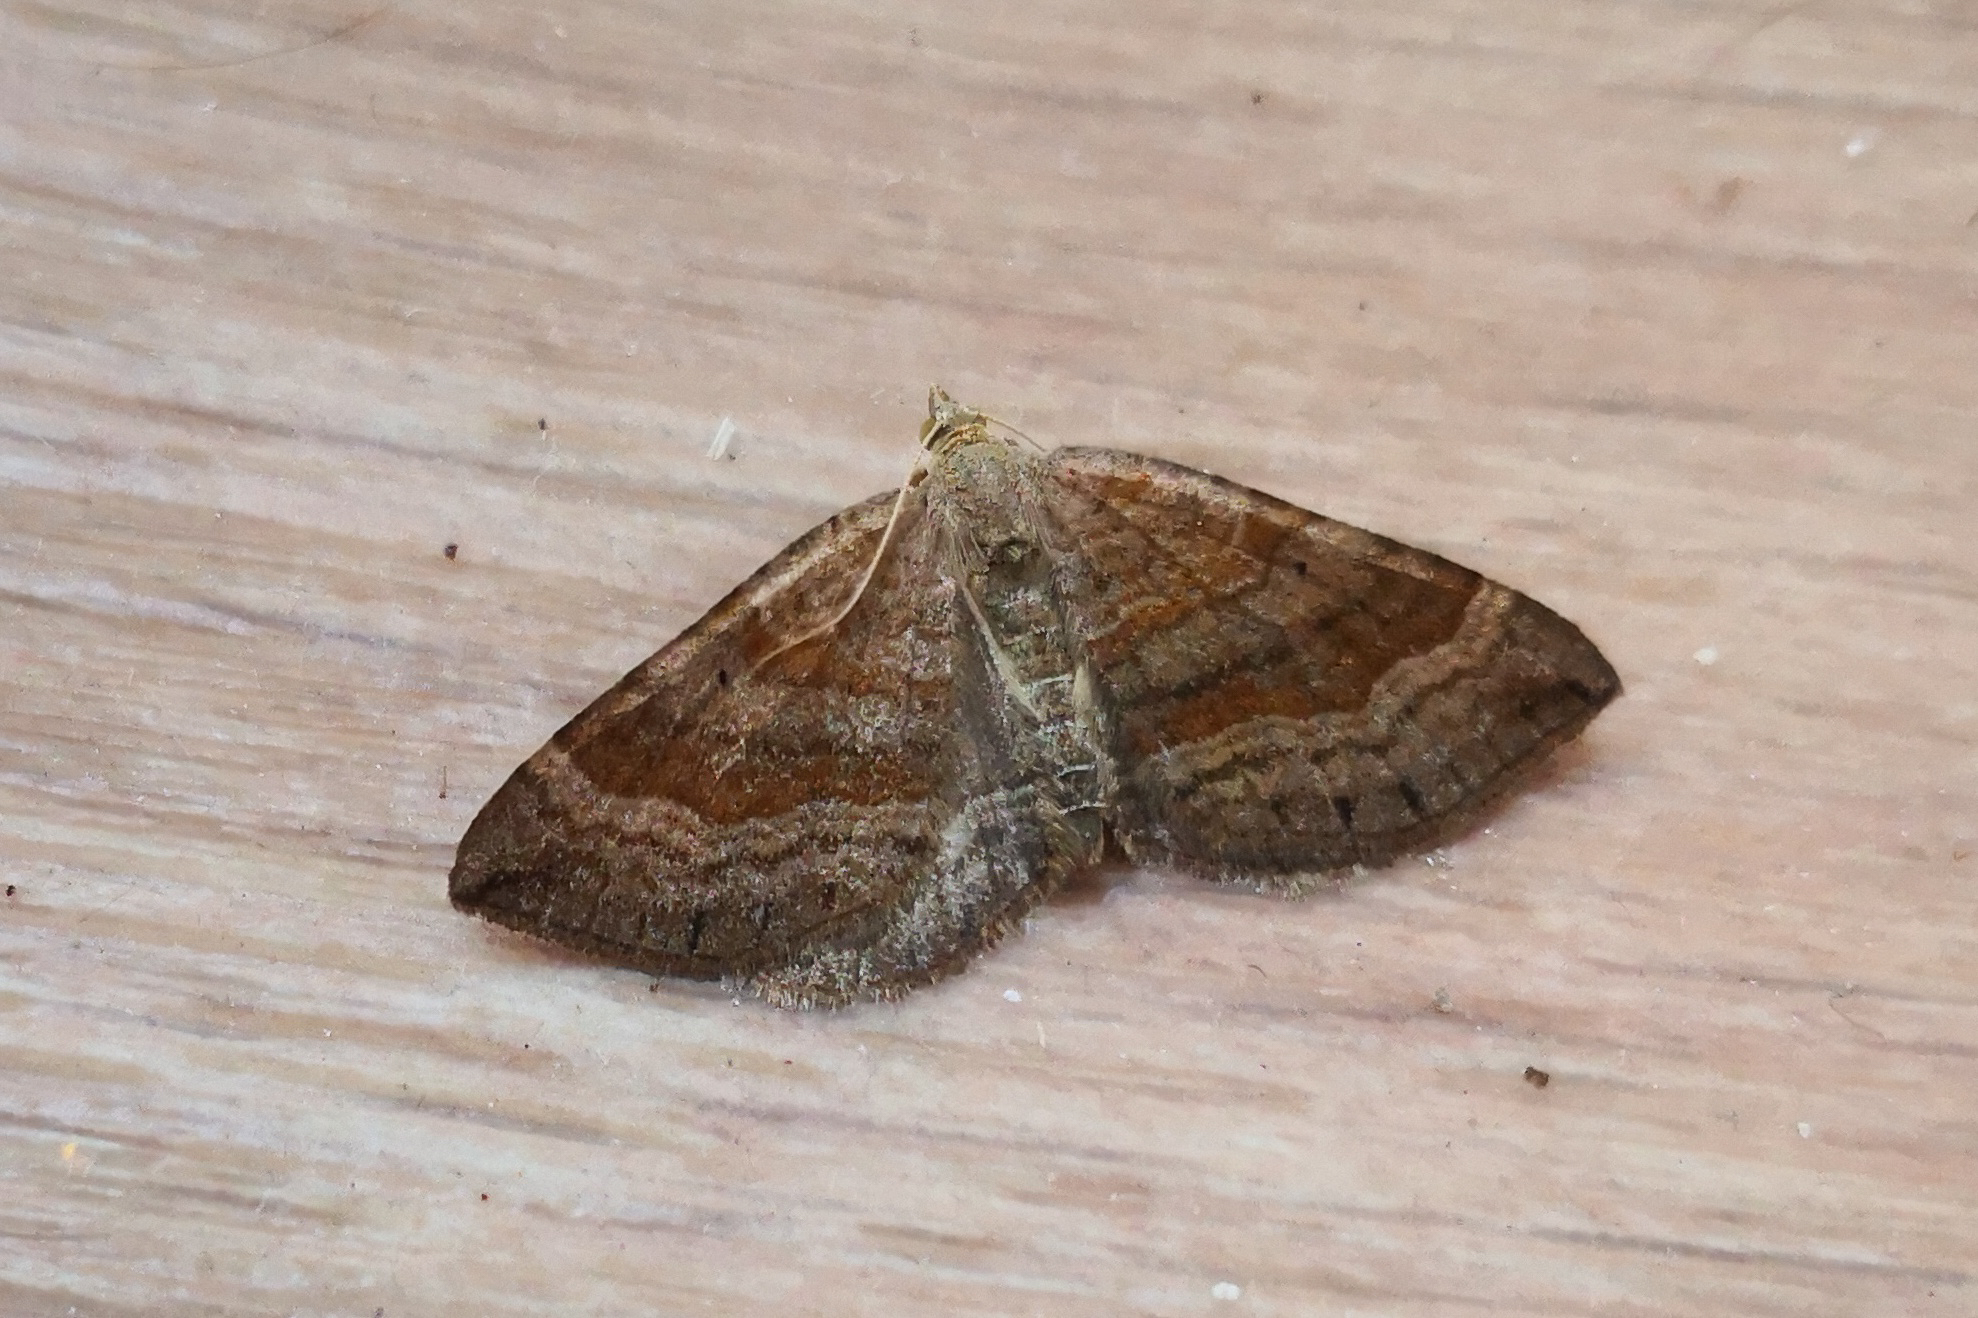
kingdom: Animalia
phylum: Arthropoda
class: Insecta
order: Lepidoptera
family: Geometridae
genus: Scotopteryx
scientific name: Scotopteryx chenopodiata
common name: Shaded broad-bar
